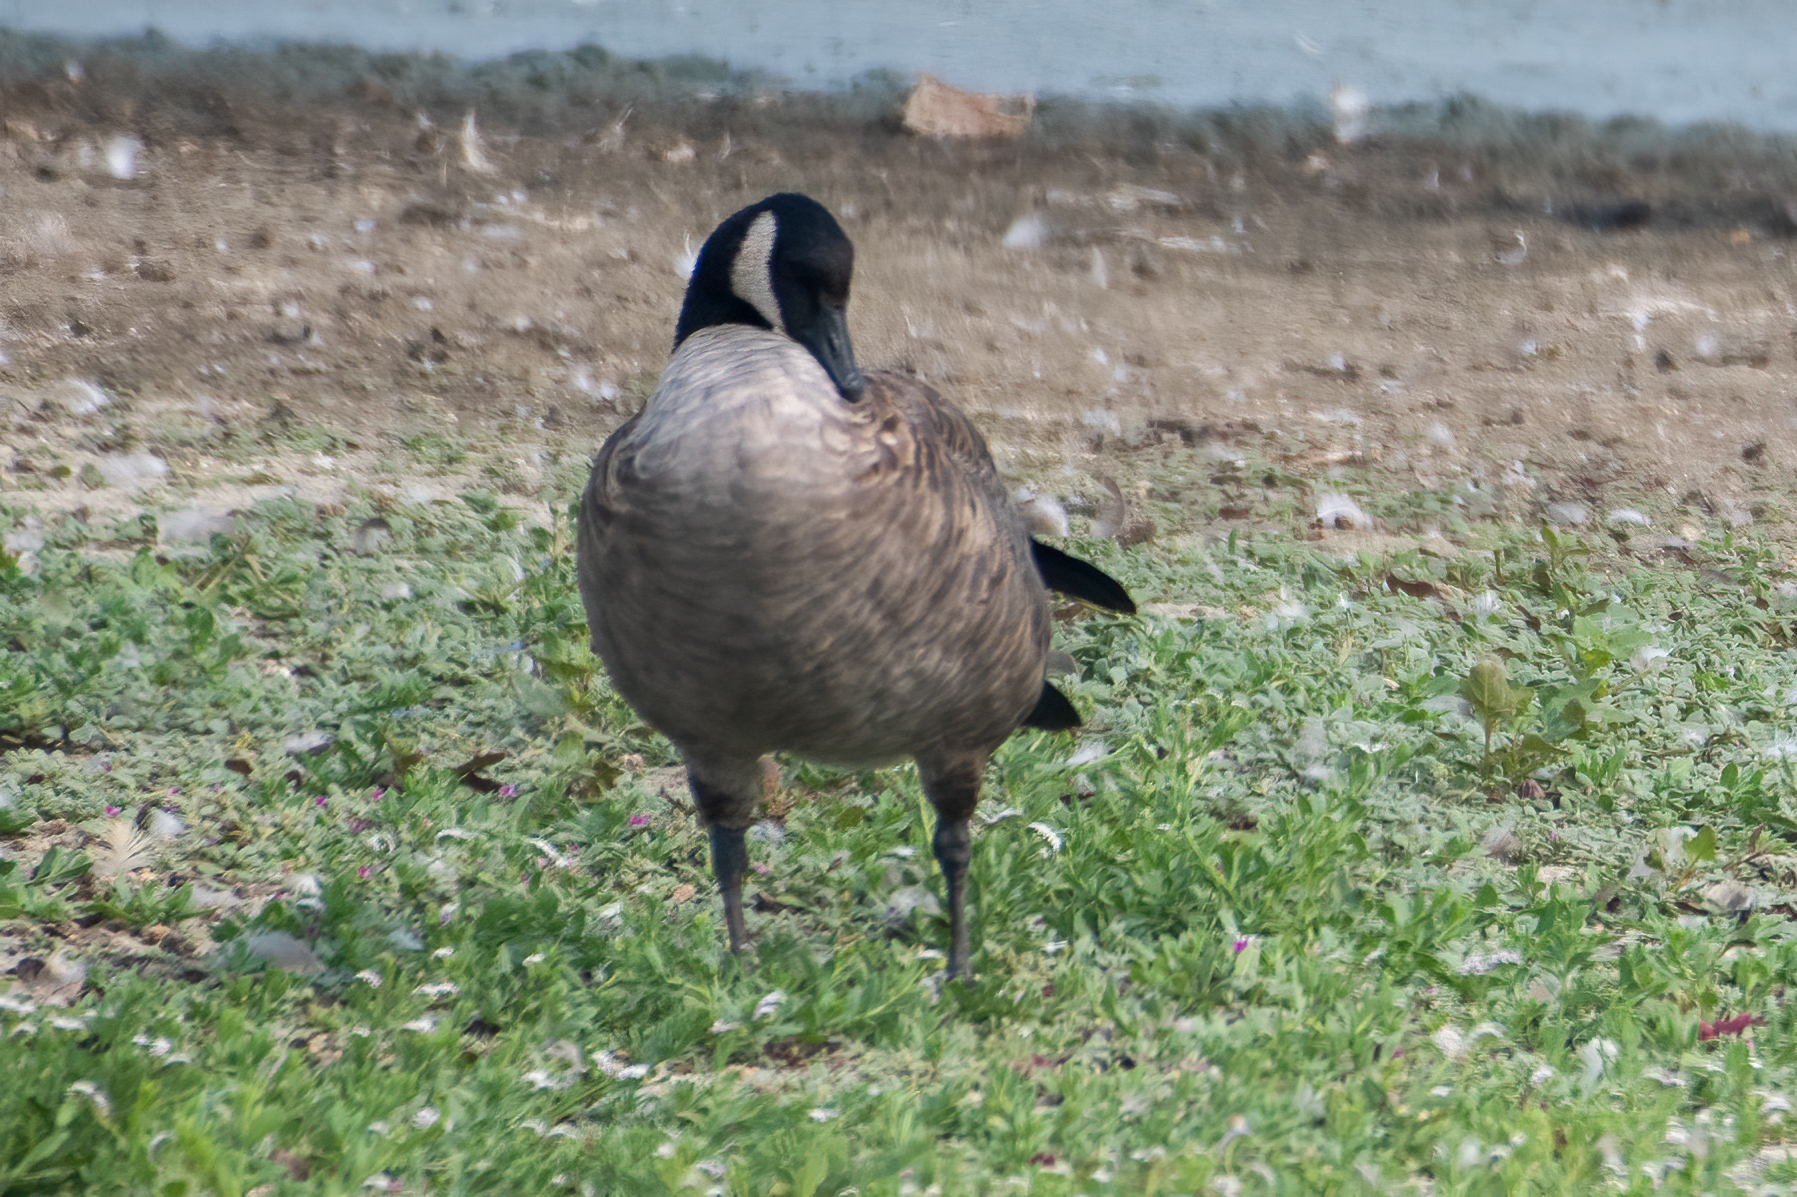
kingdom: Animalia
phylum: Chordata
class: Aves
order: Anseriformes
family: Anatidae
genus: Branta
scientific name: Branta canadensis
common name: Canada goose
